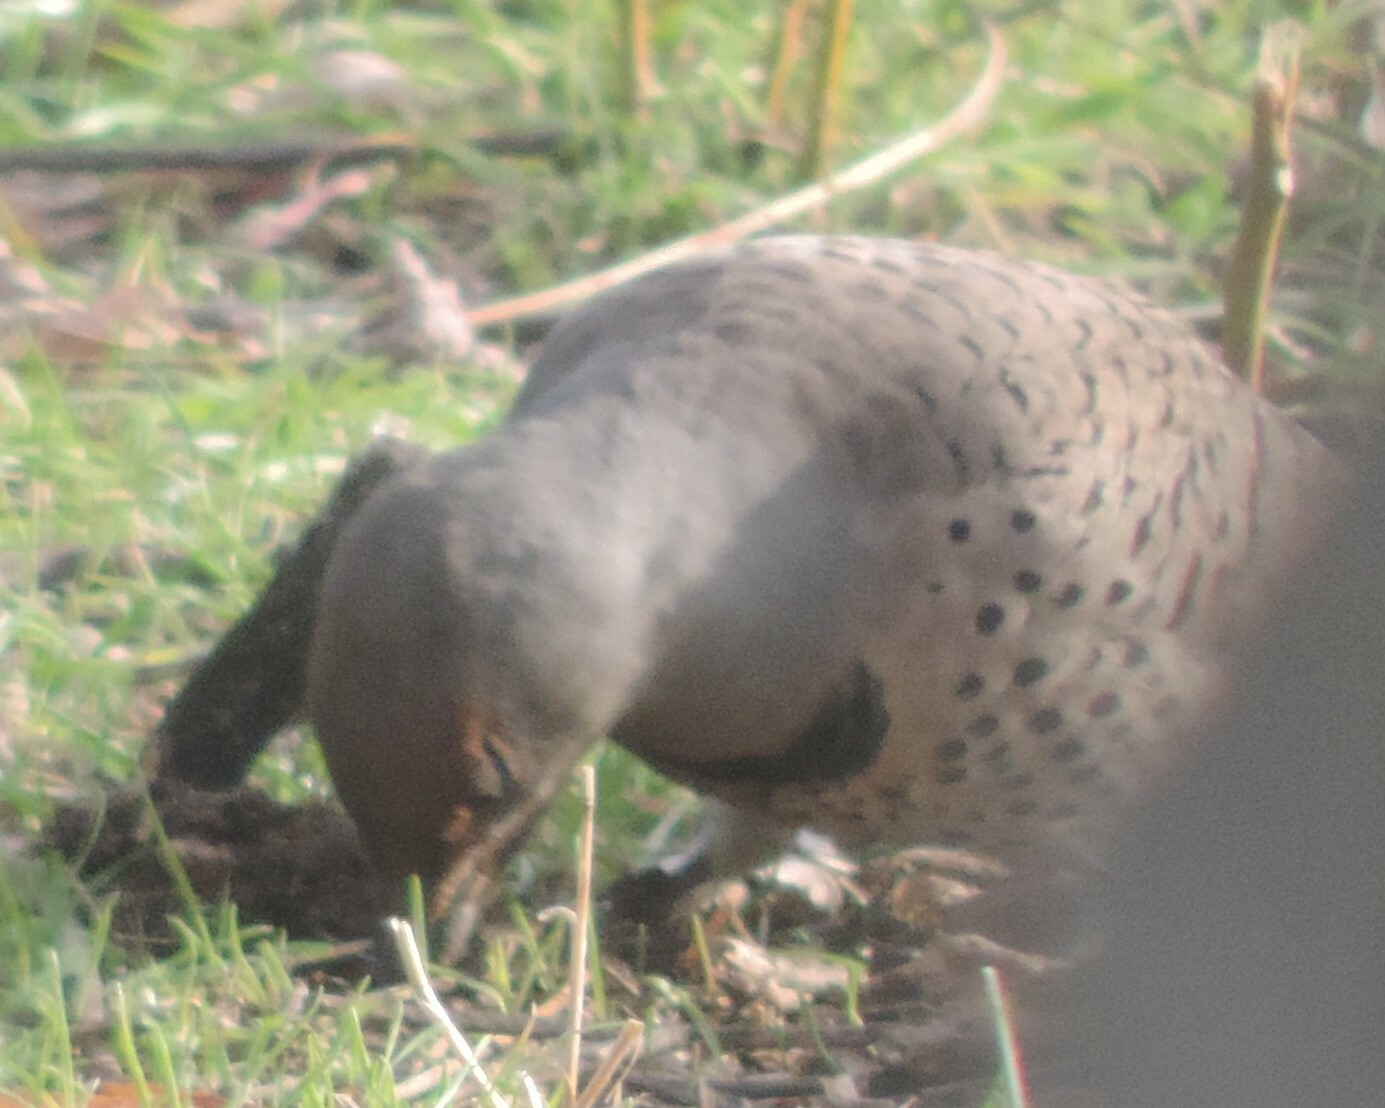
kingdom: Animalia
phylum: Chordata
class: Aves
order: Piciformes
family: Picidae
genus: Colaptes
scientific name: Colaptes auratus
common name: Northern flicker
